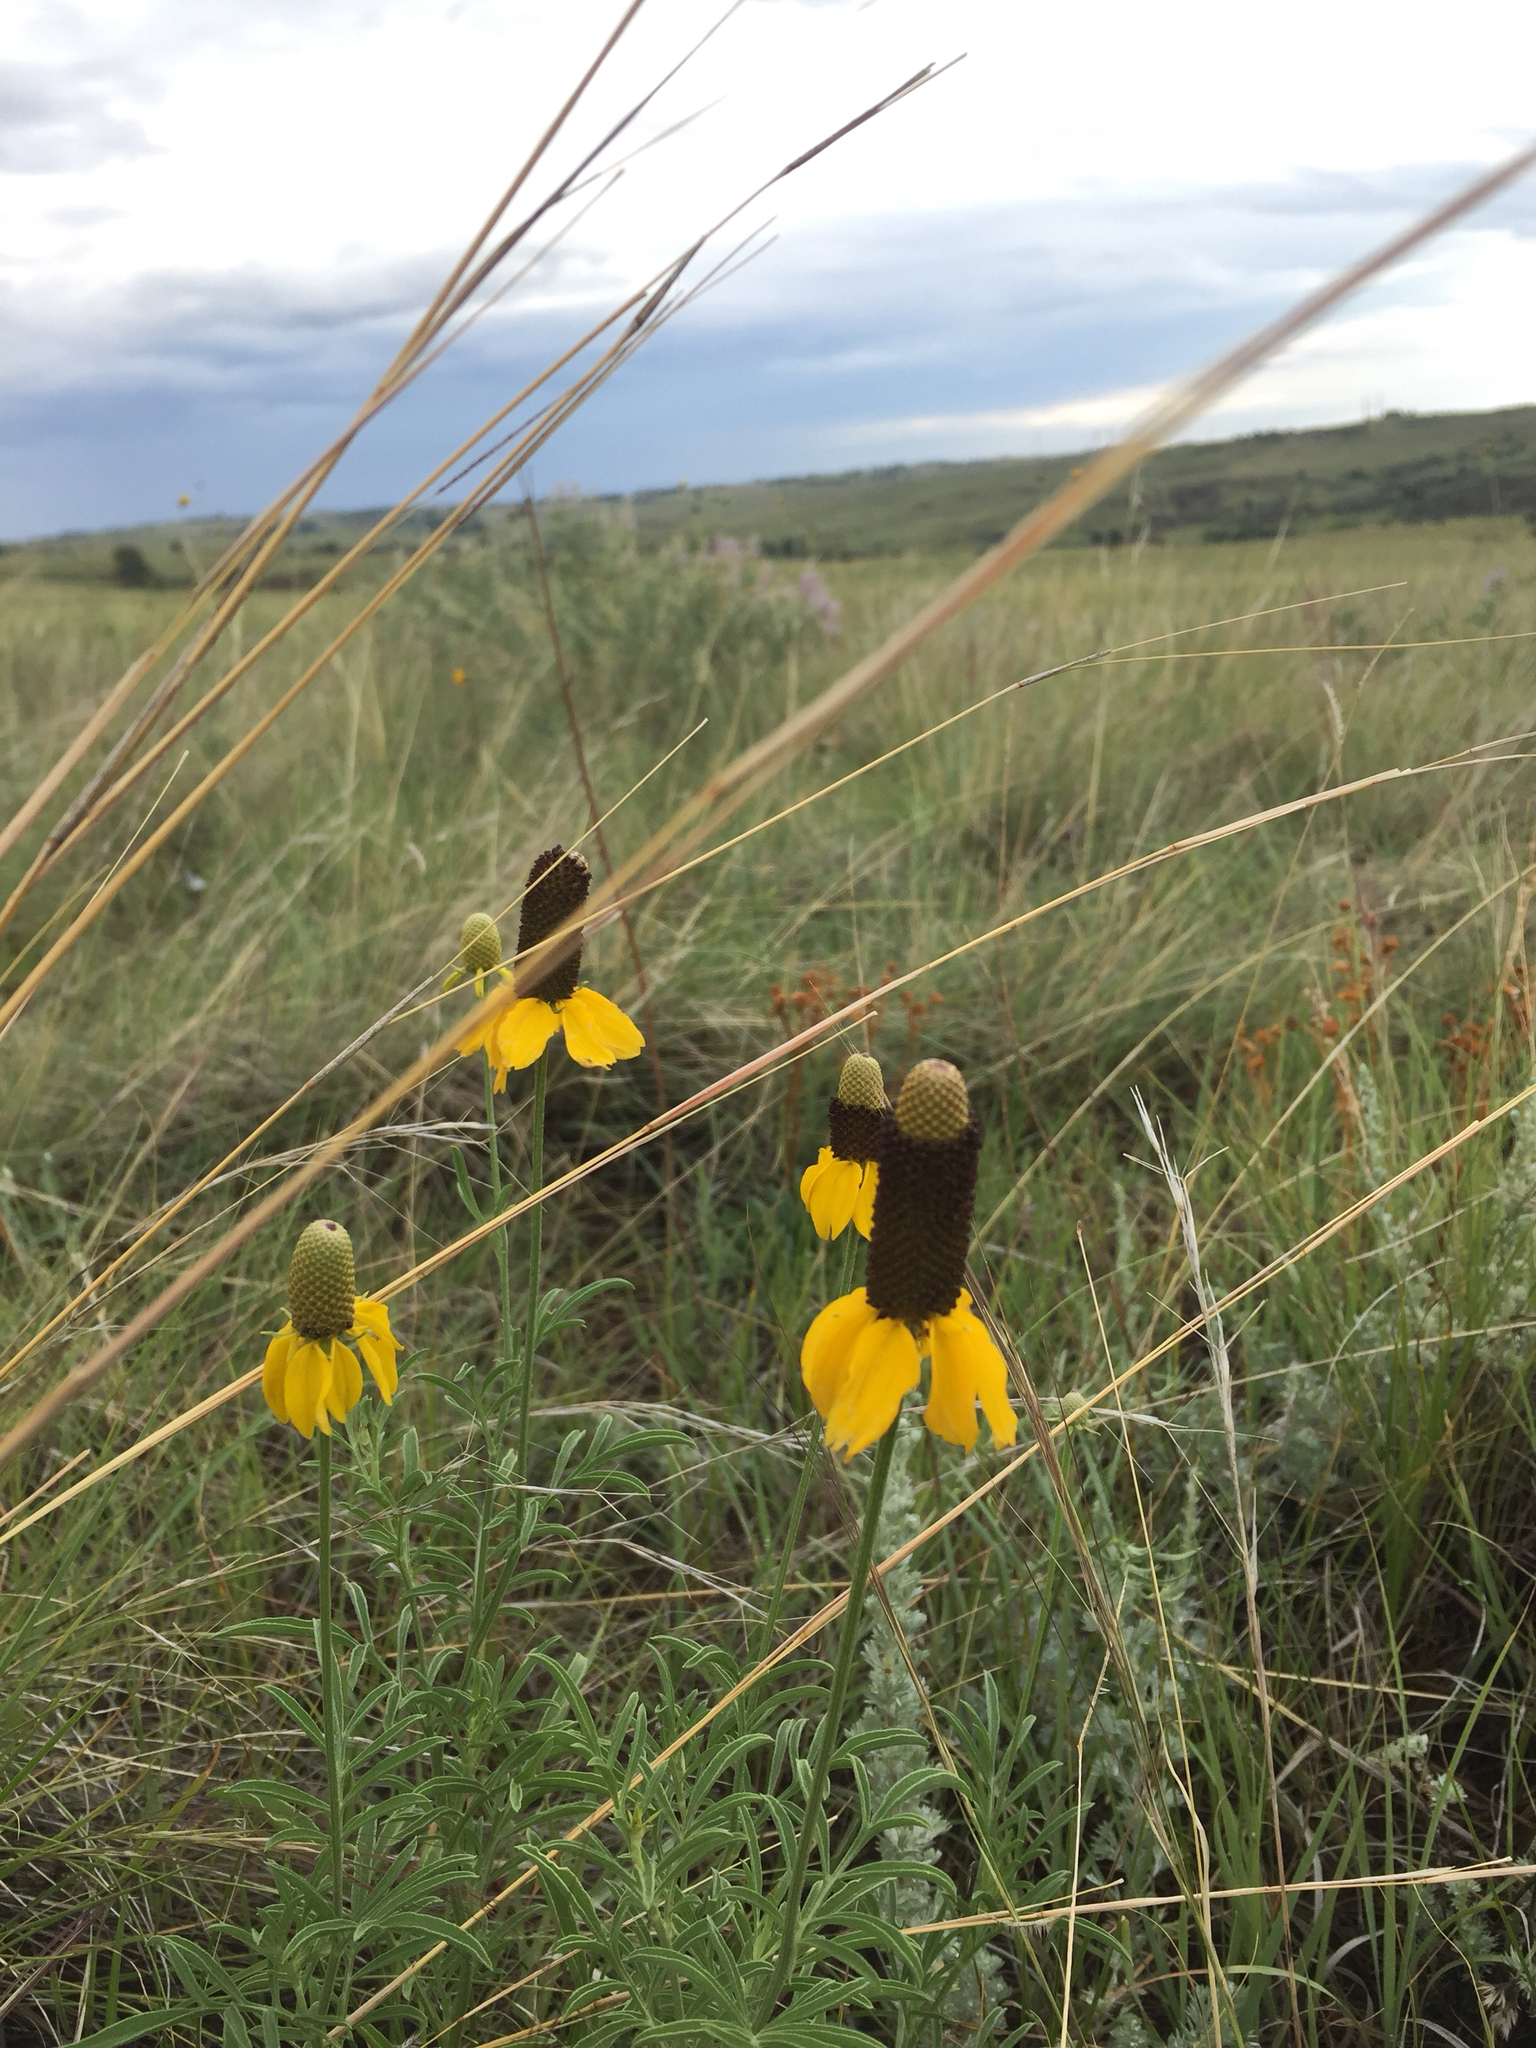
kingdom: Plantae
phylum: Tracheophyta
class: Magnoliopsida
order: Asterales
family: Asteraceae
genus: Ratibida
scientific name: Ratibida columnifera
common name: Prairie coneflower
